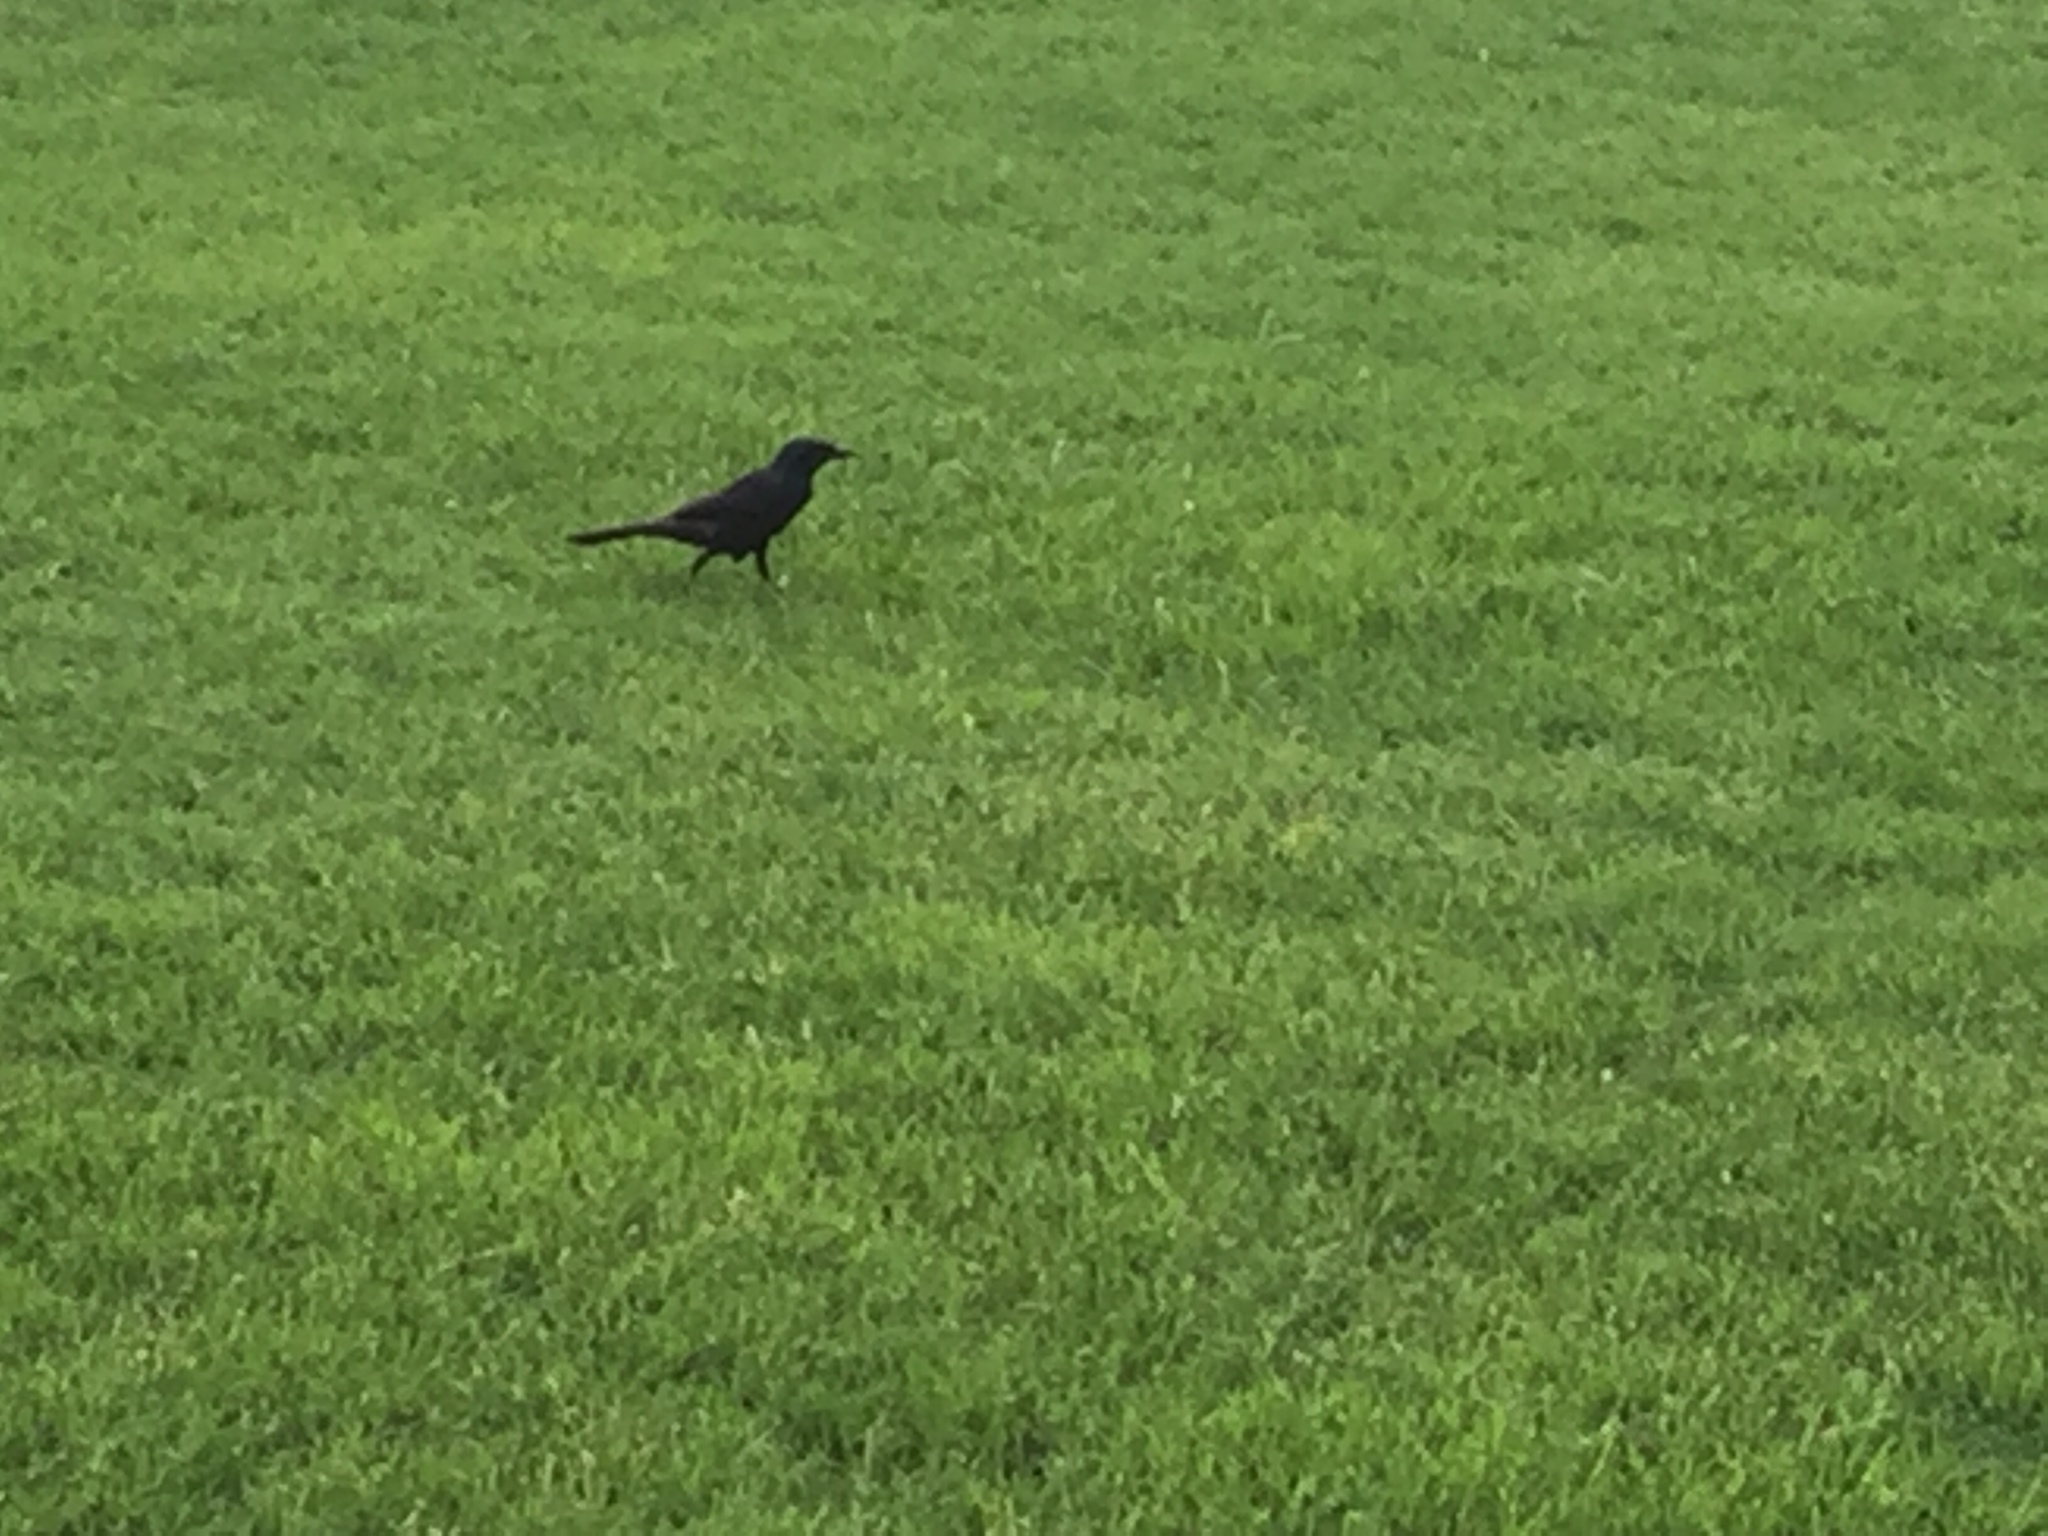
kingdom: Animalia
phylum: Chordata
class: Aves
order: Passeriformes
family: Icteridae
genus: Quiscalus
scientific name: Quiscalus quiscula
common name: Common grackle
